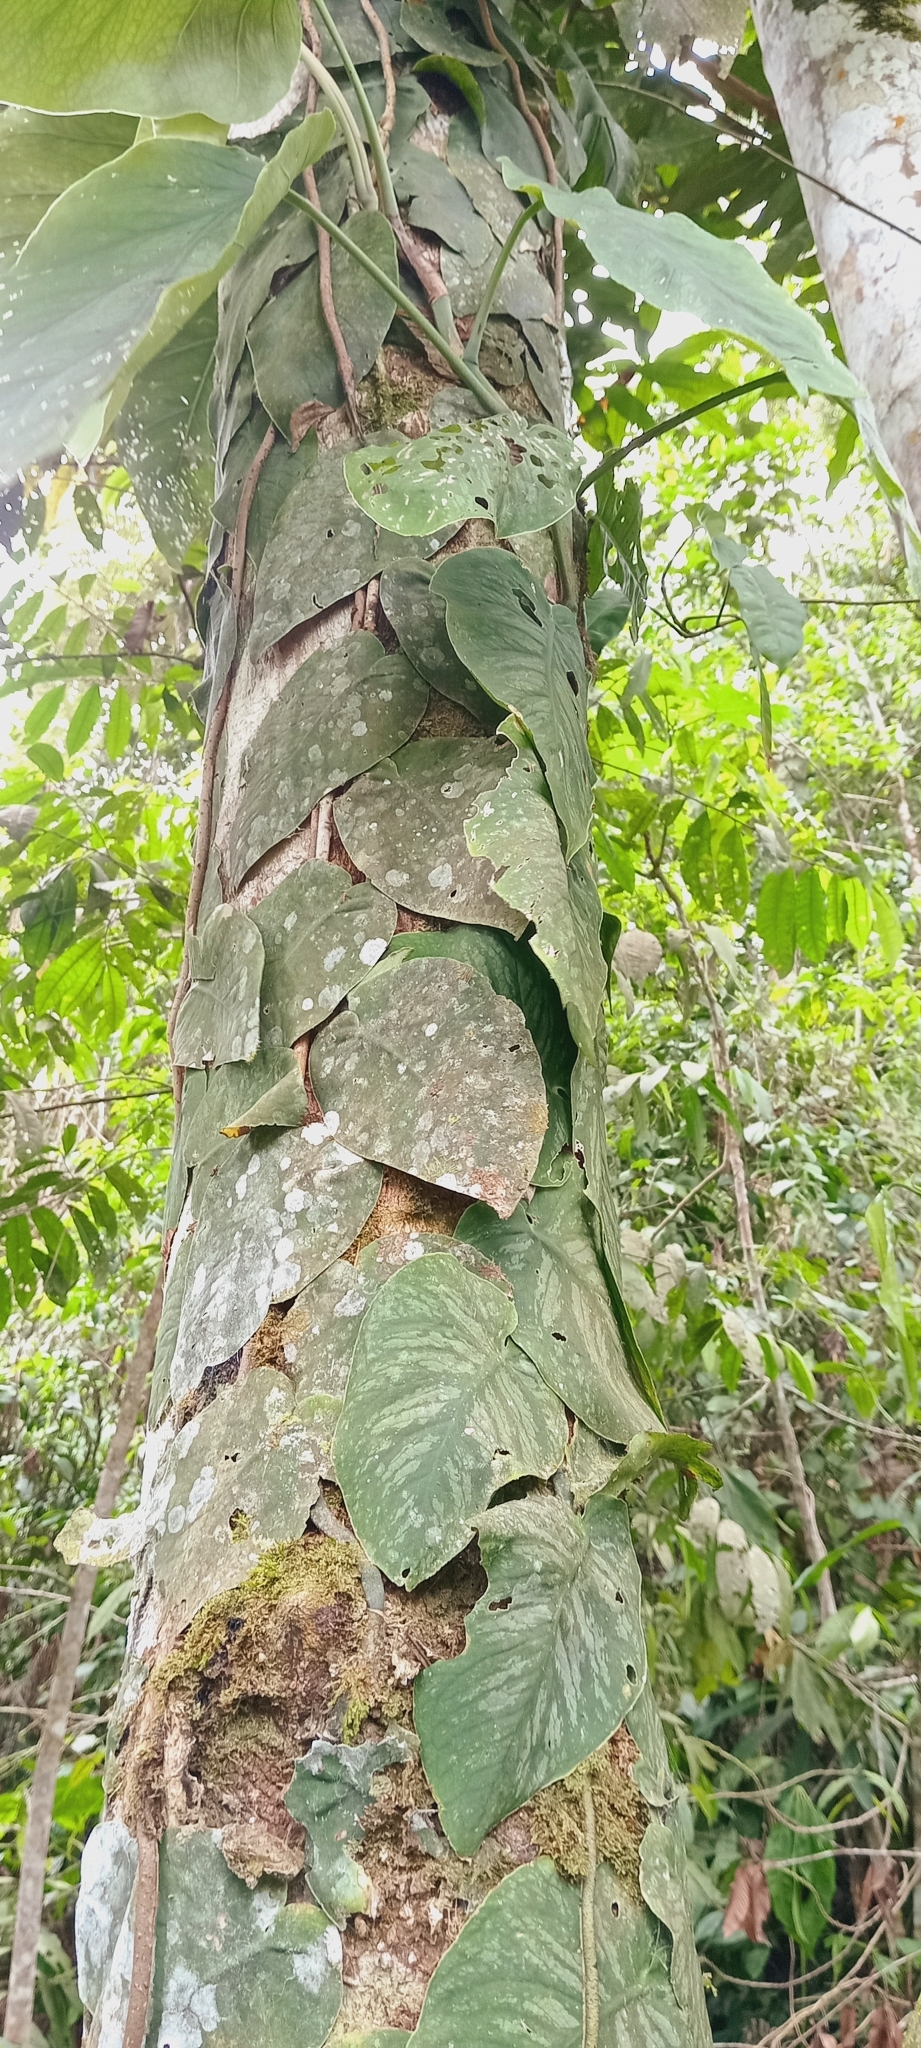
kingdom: Plantae
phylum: Tracheophyta
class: Liliopsida
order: Alismatales
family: Araceae
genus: Monstera
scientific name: Monstera dubia
